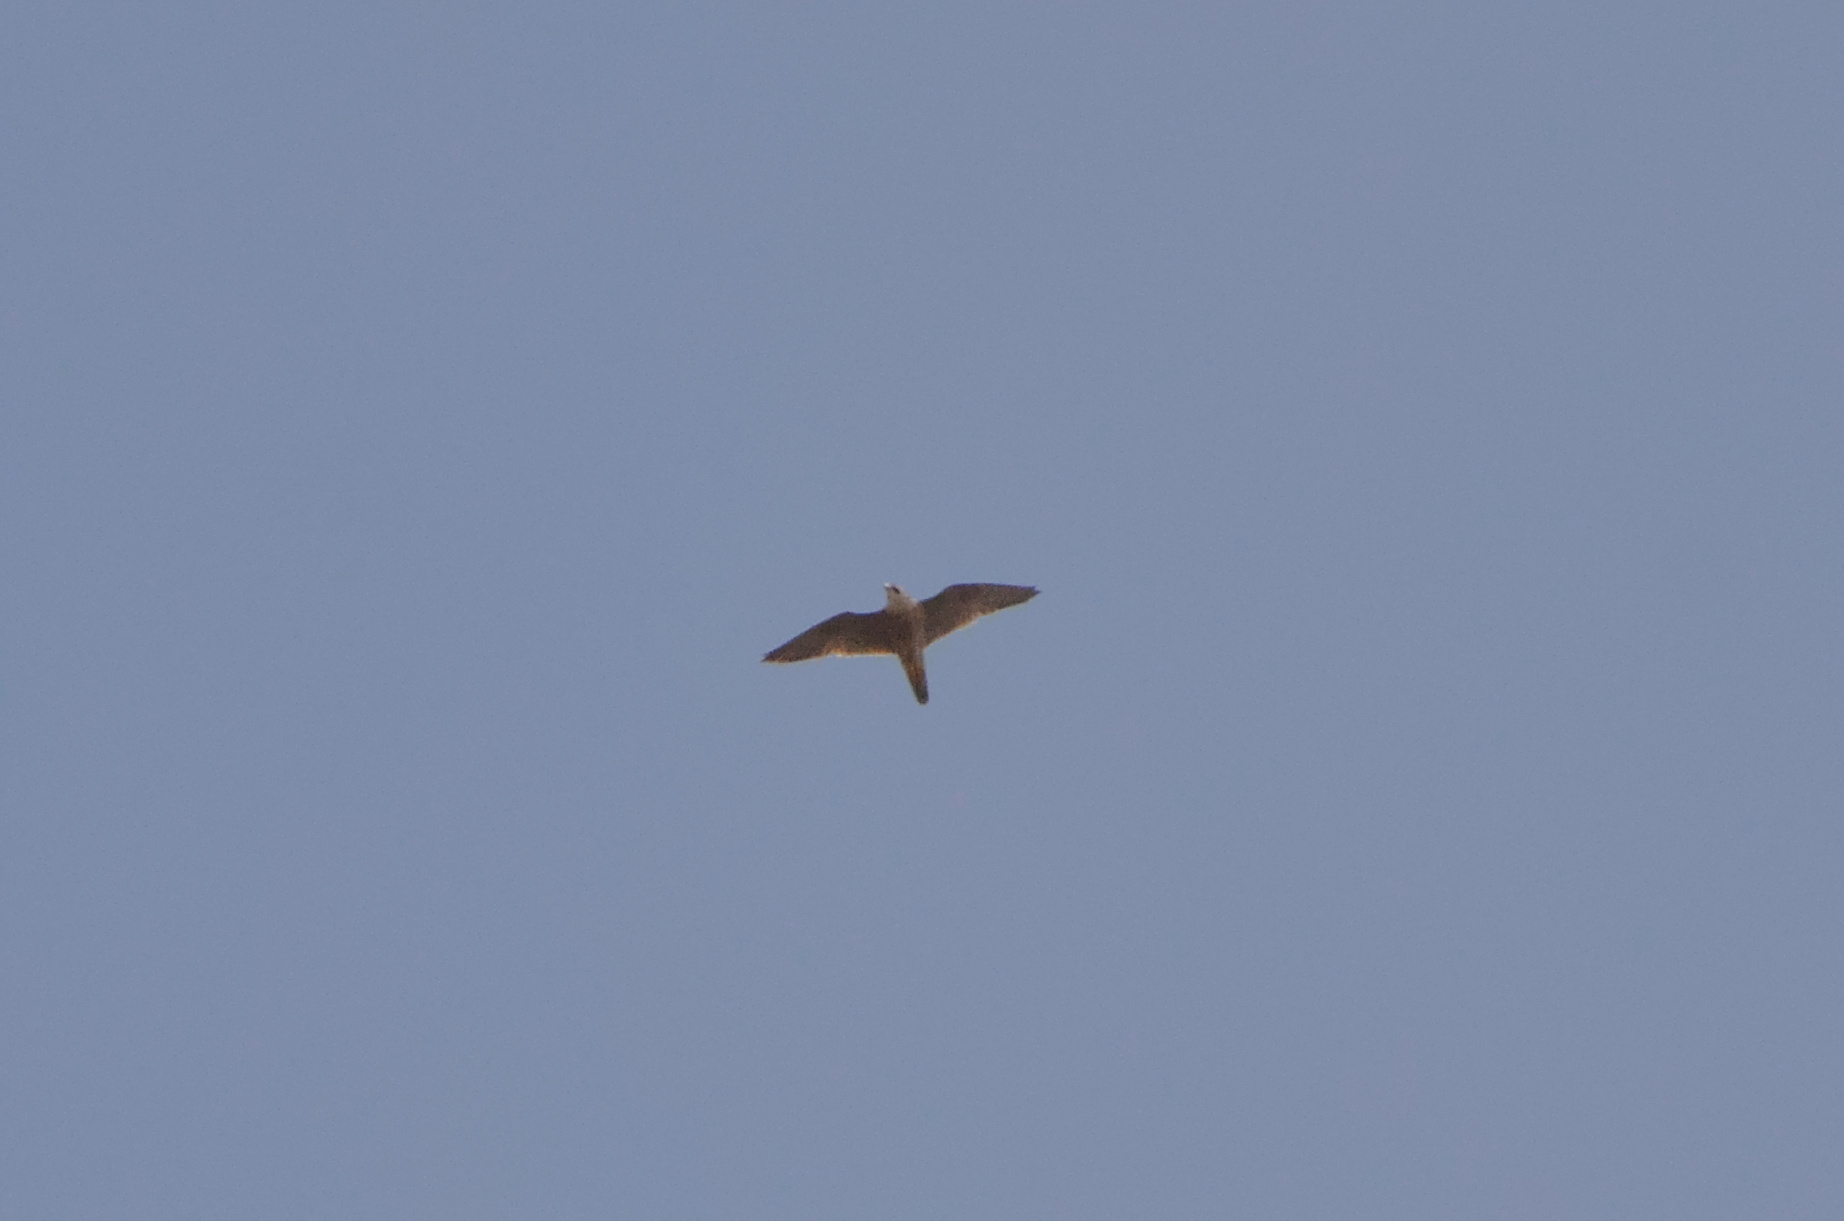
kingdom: Animalia
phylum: Chordata
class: Aves
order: Falconiformes
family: Falconidae
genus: Falco
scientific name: Falco peregrinus
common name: Peregrine falcon
